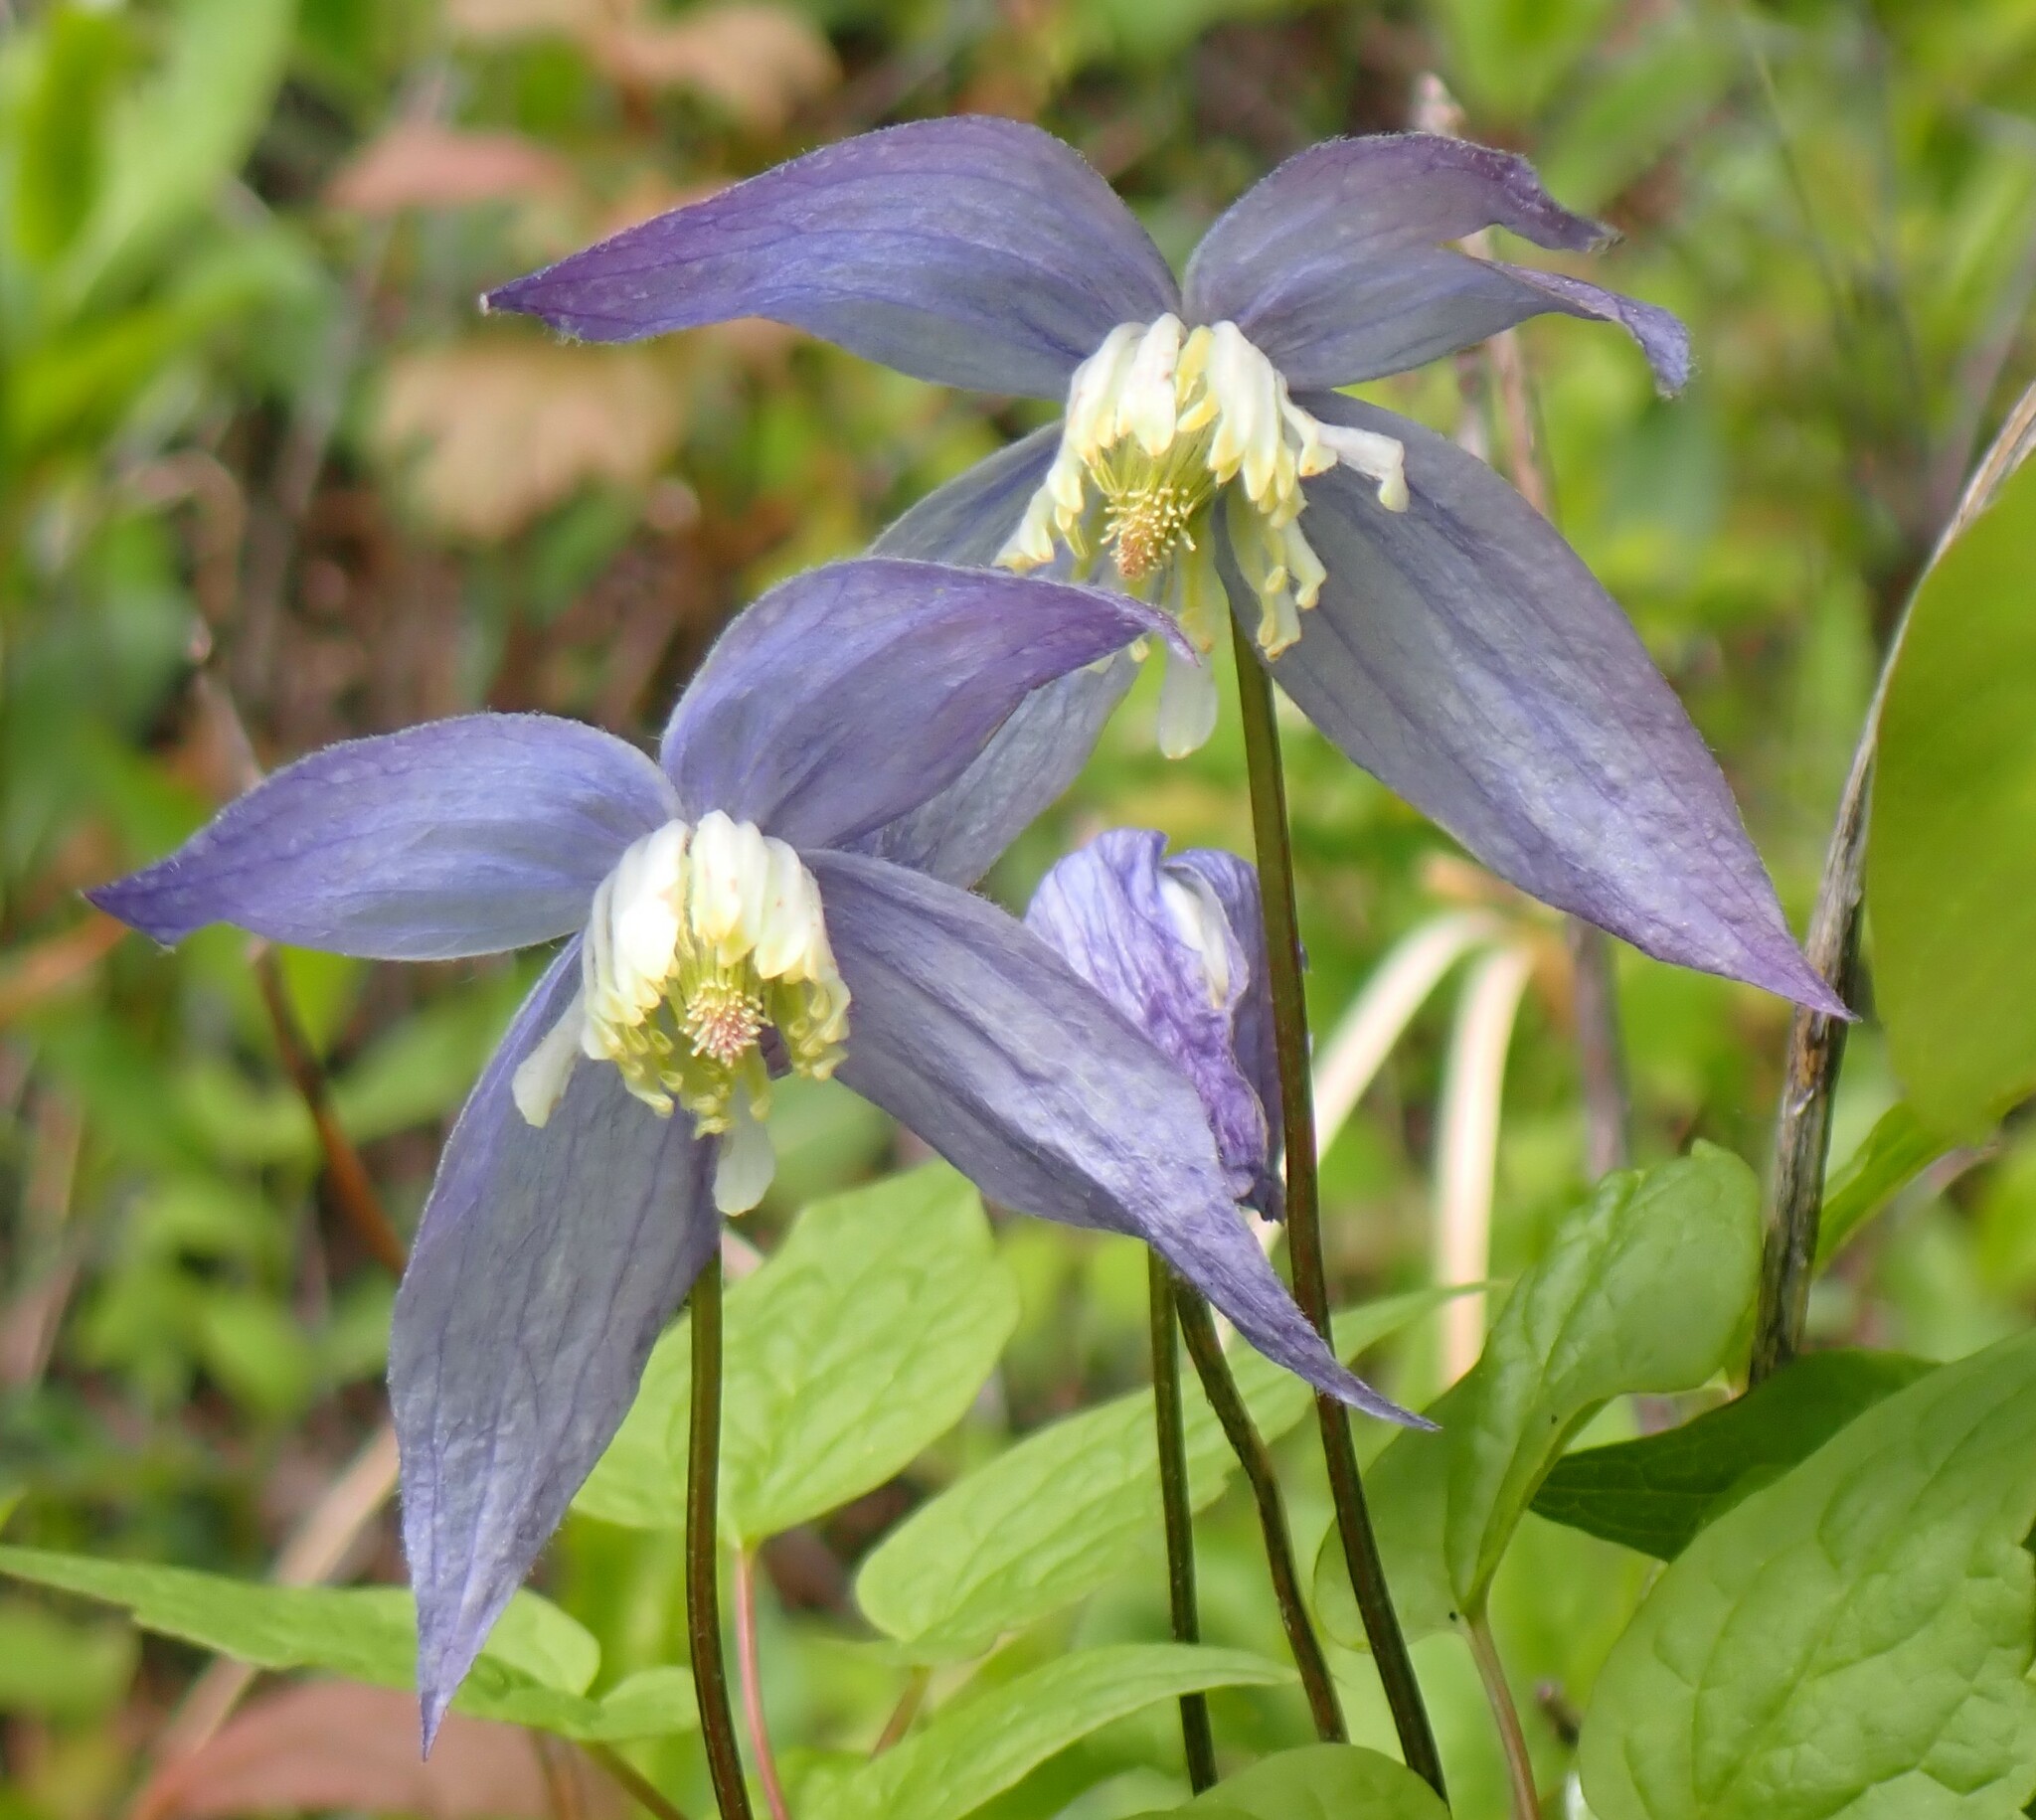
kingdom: Plantae
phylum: Tracheophyta
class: Magnoliopsida
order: Ranunculales
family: Ranunculaceae
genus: Clematis
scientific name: Clematis occidentalis
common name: Purple clematis
